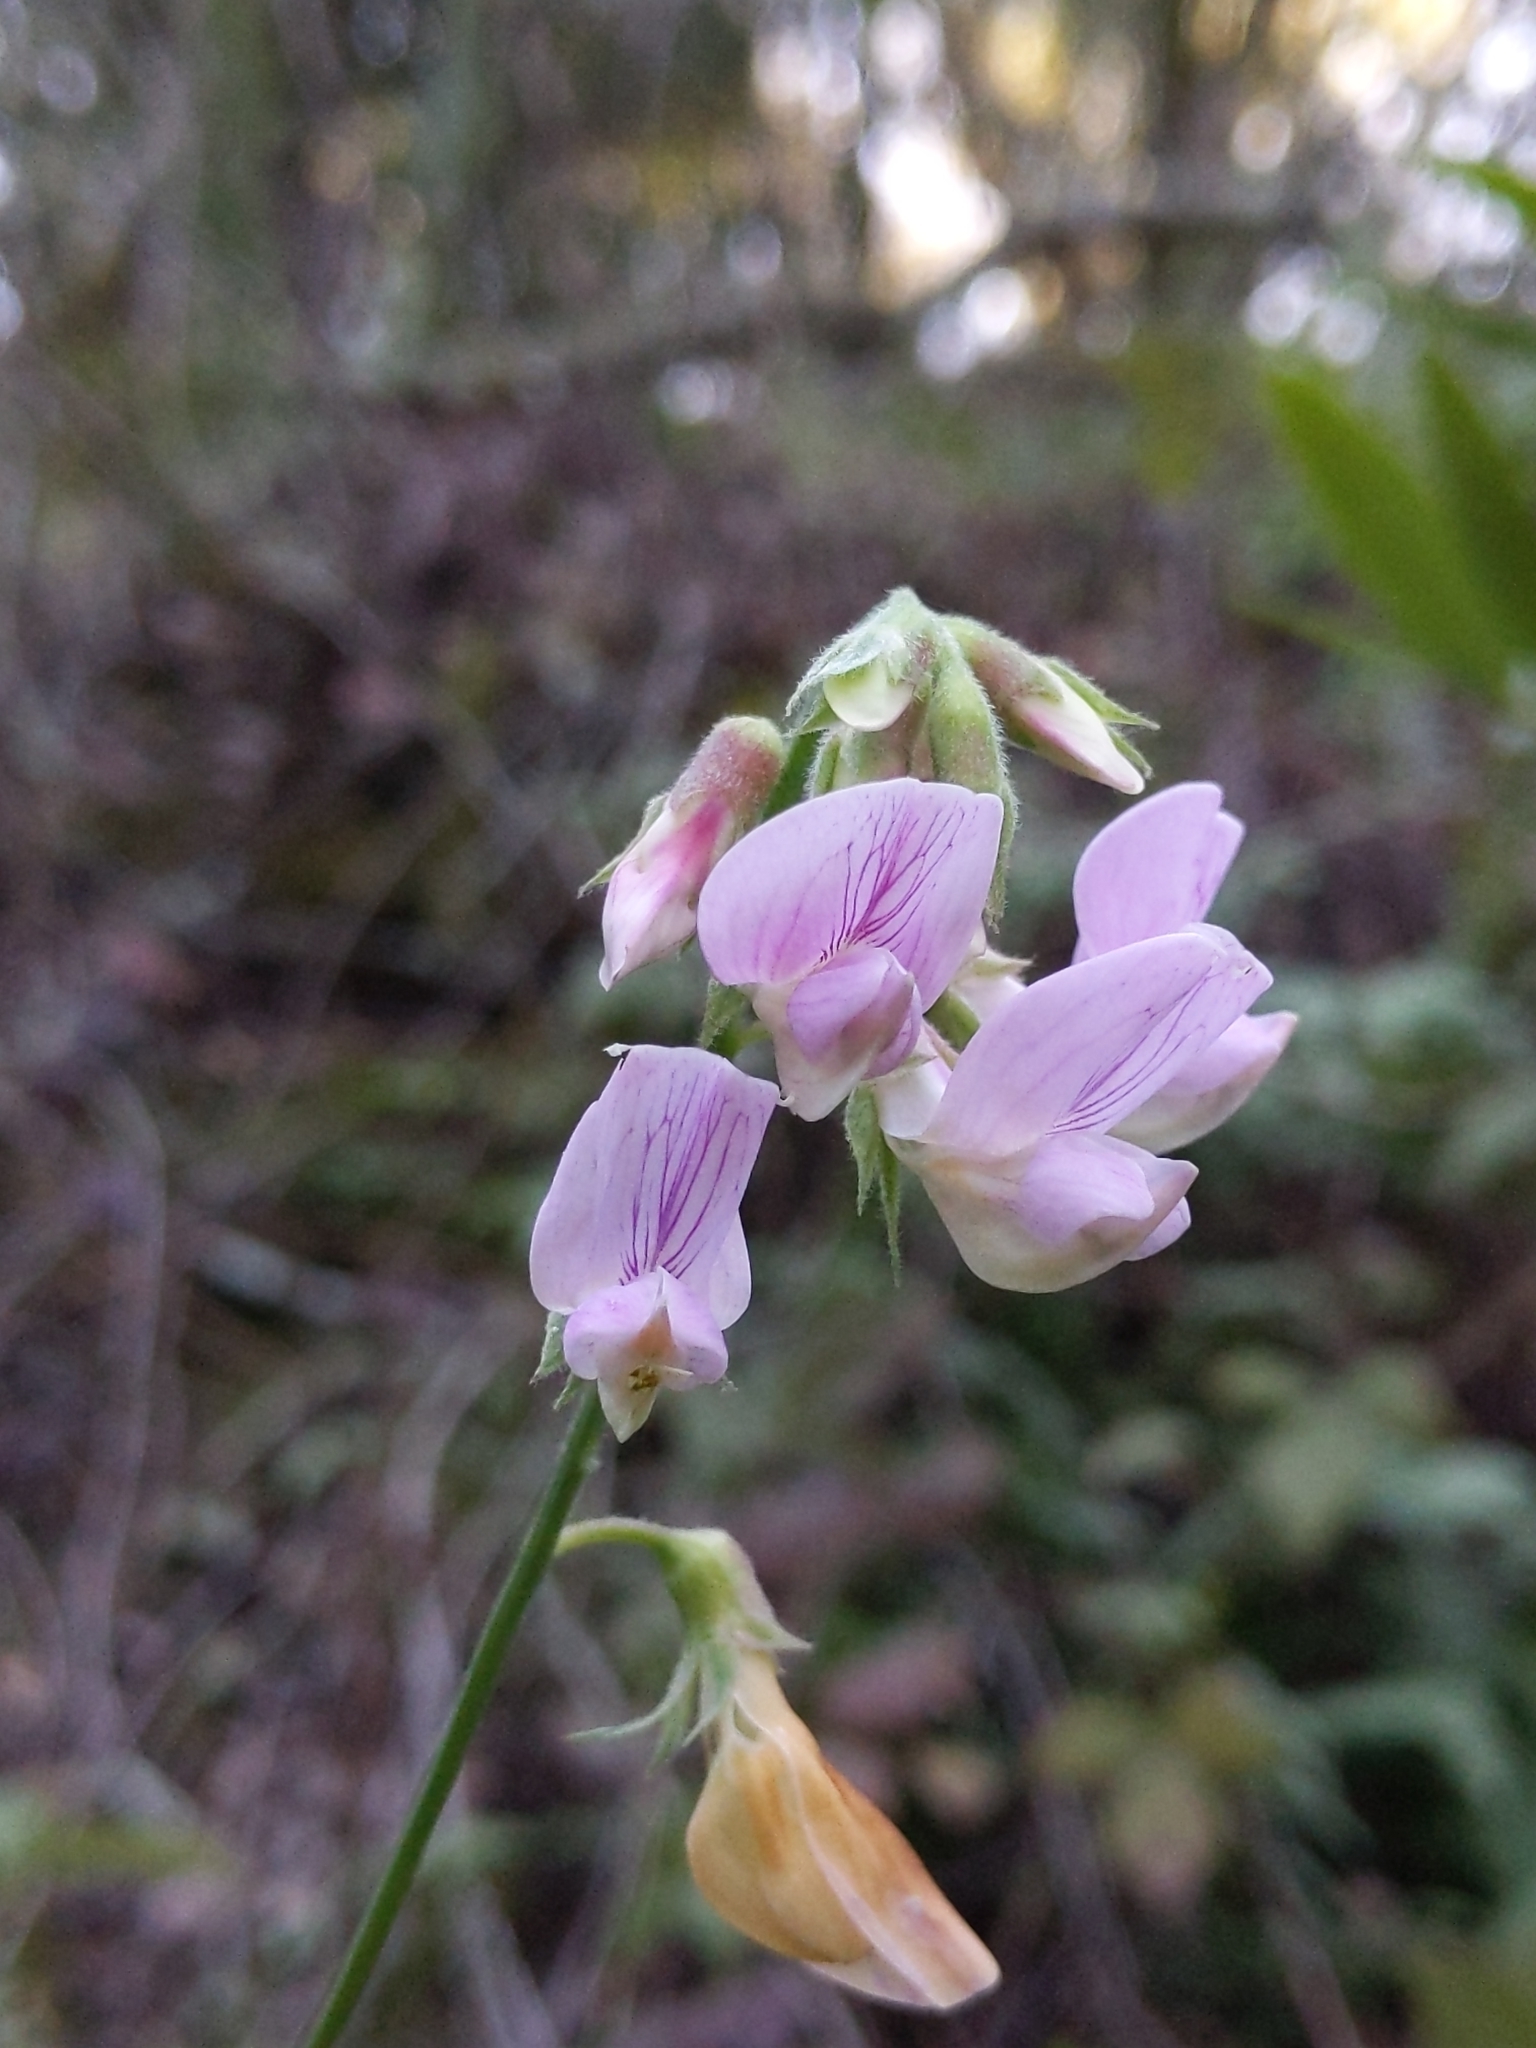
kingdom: Plantae
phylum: Tracheophyta
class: Magnoliopsida
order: Fabales
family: Fabaceae
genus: Lathyrus
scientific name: Lathyrus vestitus
